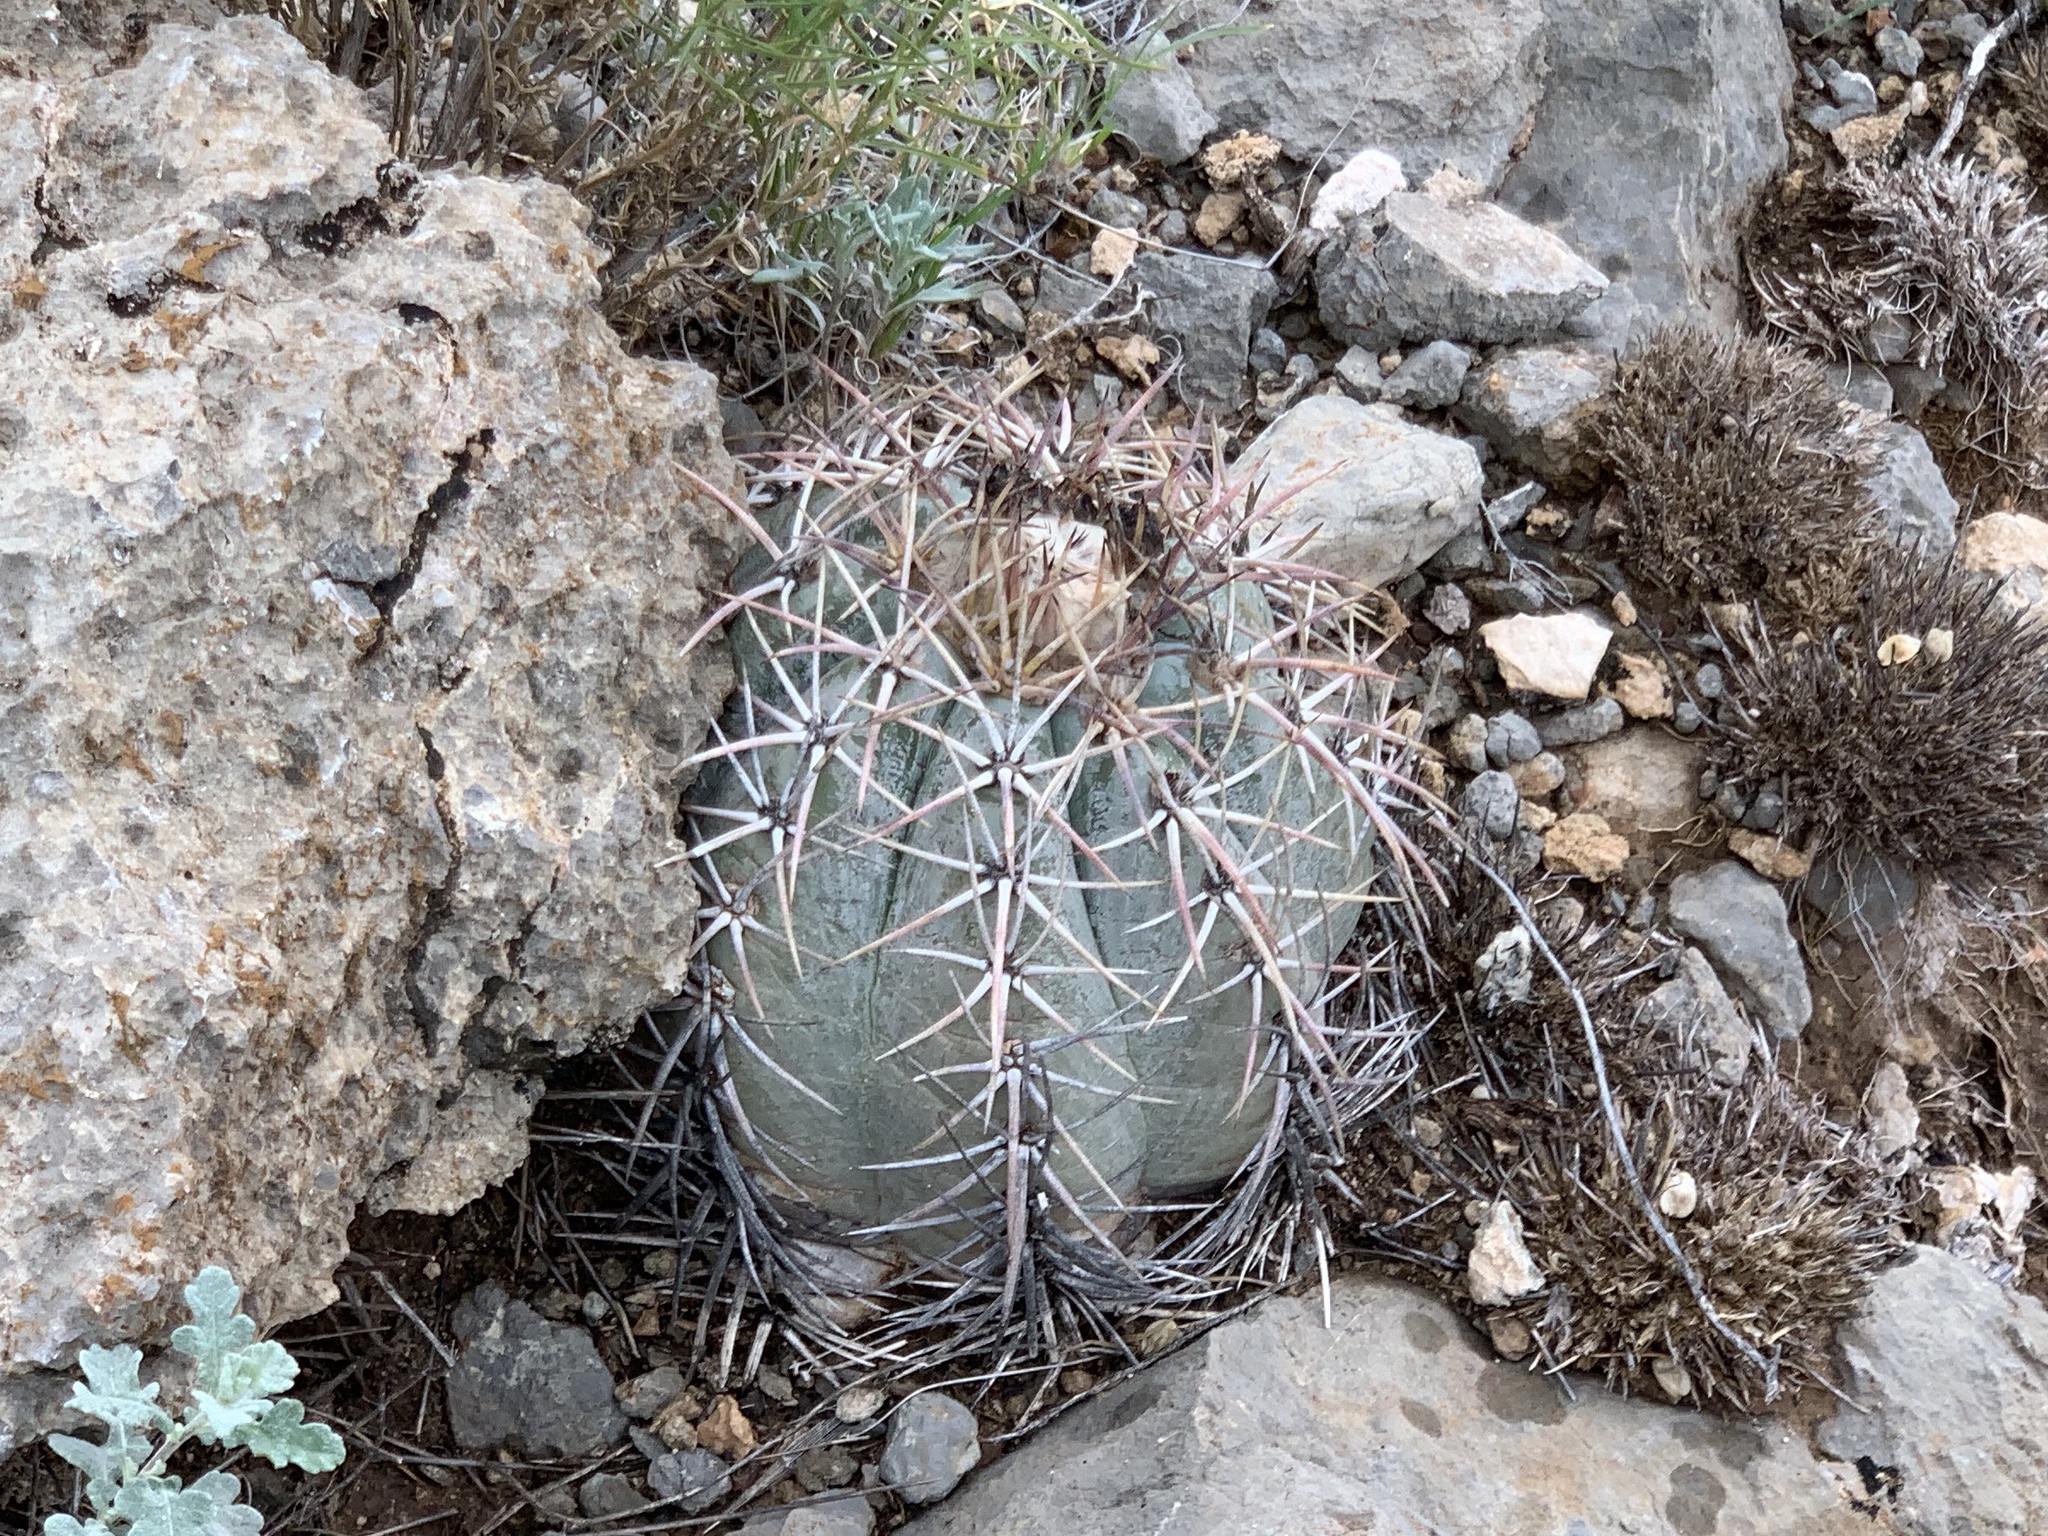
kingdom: Plantae
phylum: Tracheophyta
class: Magnoliopsida
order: Caryophyllales
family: Cactaceae
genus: Echinocactus
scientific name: Echinocactus horizonthalonius
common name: Devilshead
